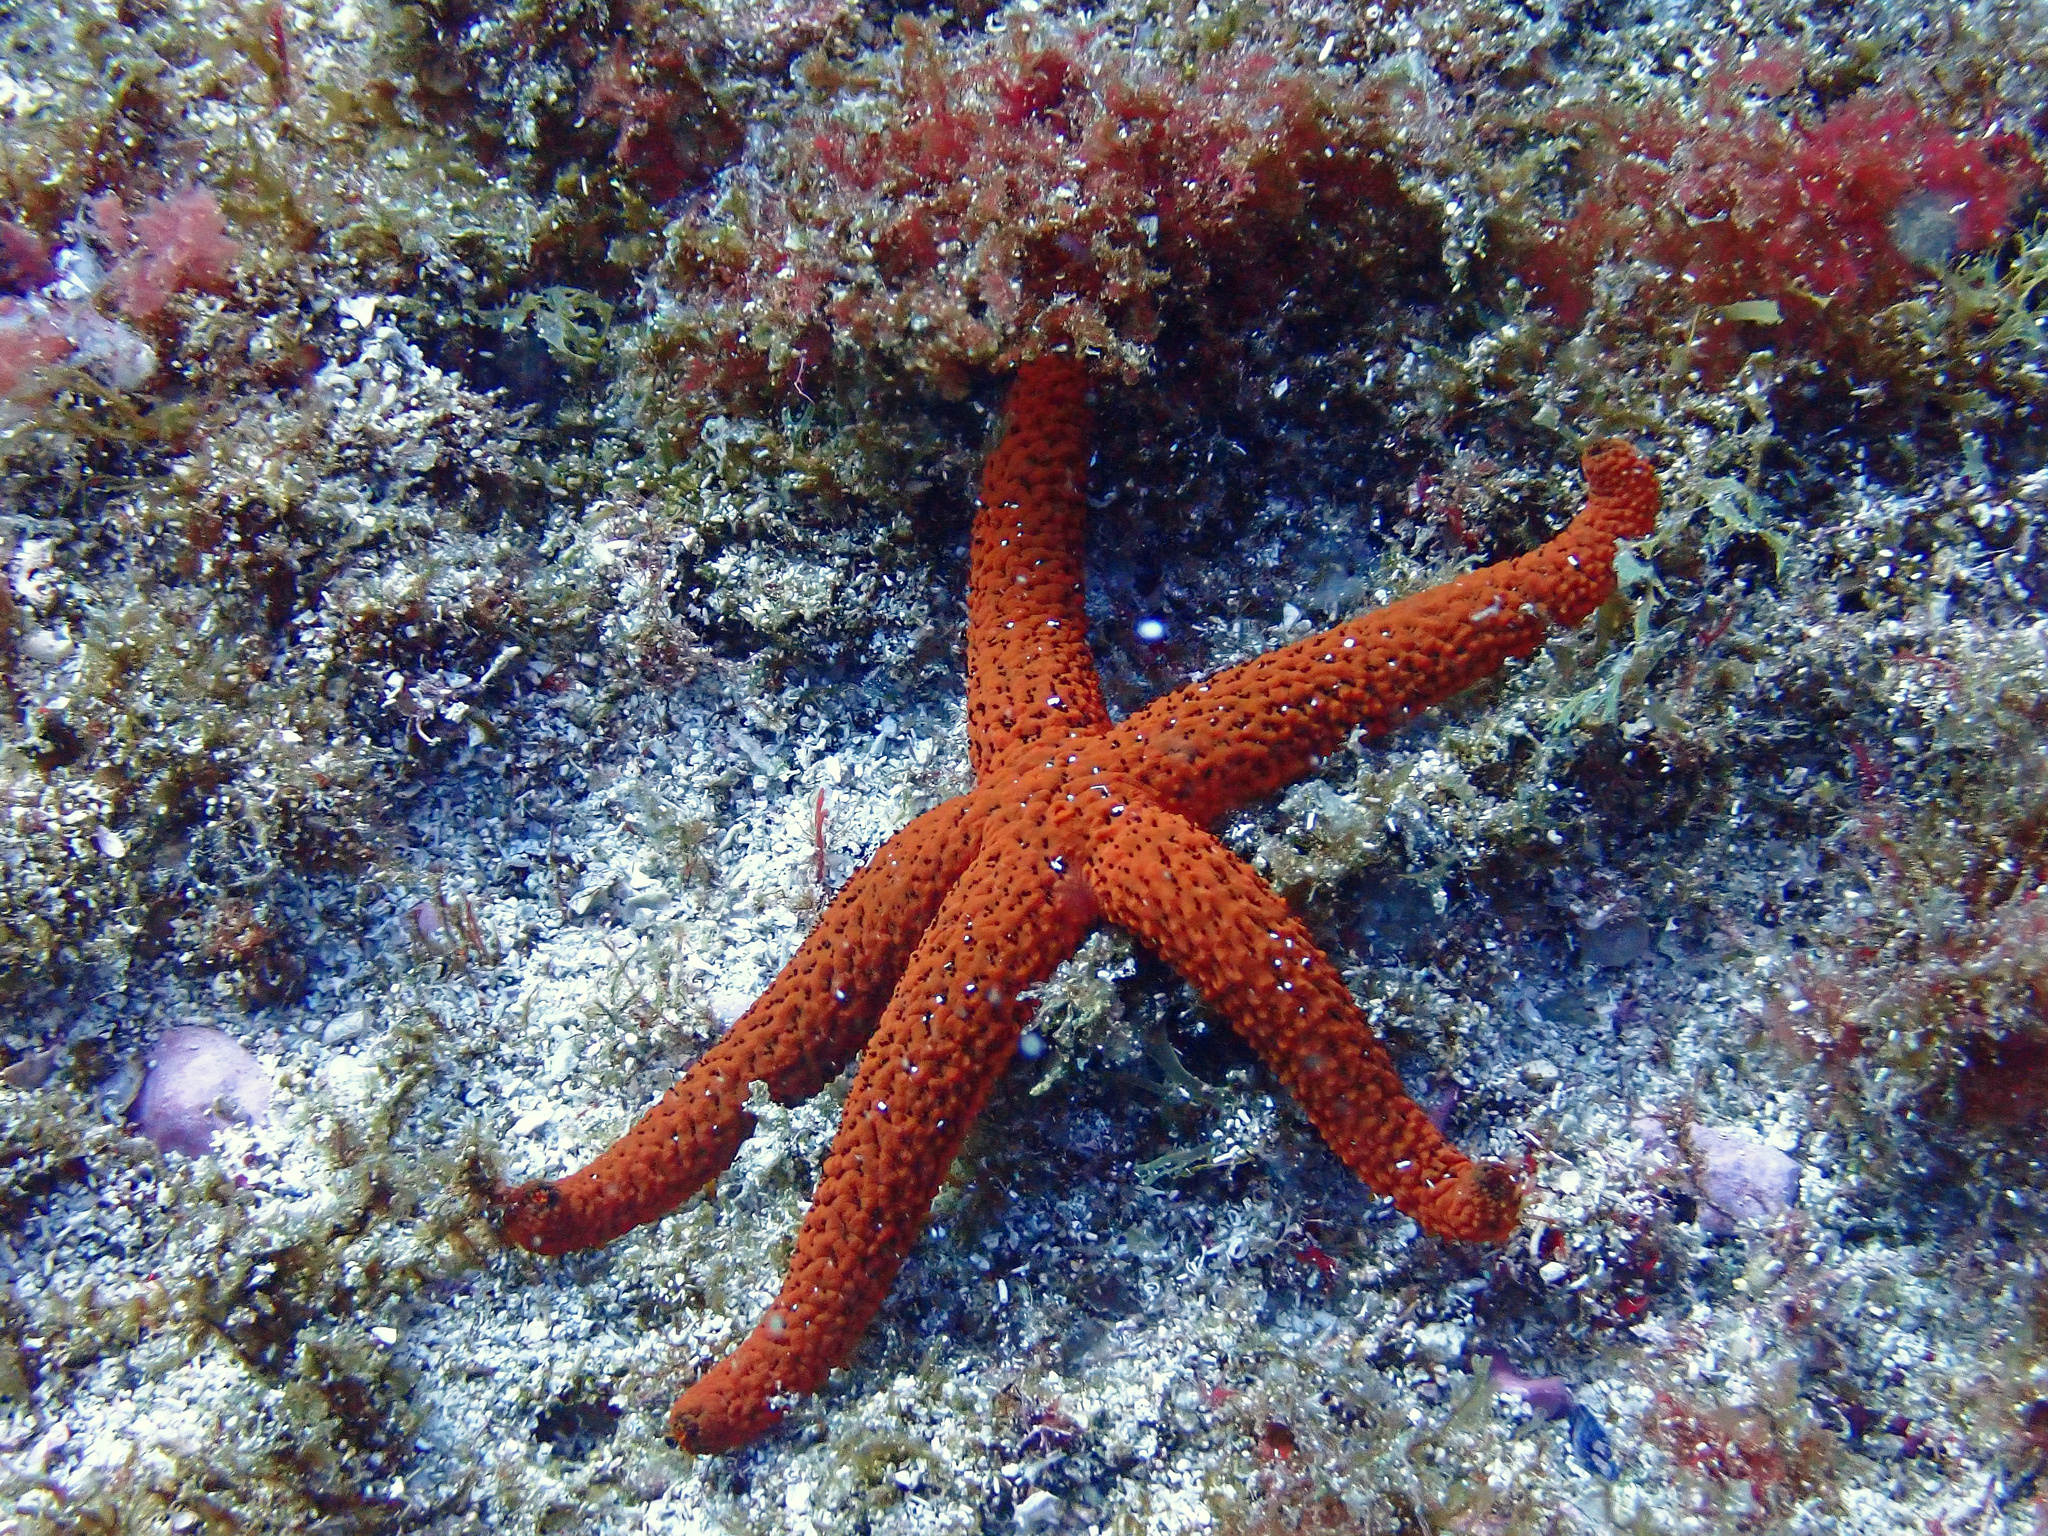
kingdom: Animalia
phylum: Echinodermata
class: Asteroidea
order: Spinulosida
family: Echinasteridae
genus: Echinaster
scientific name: Echinaster sepositus
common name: Red starfish
